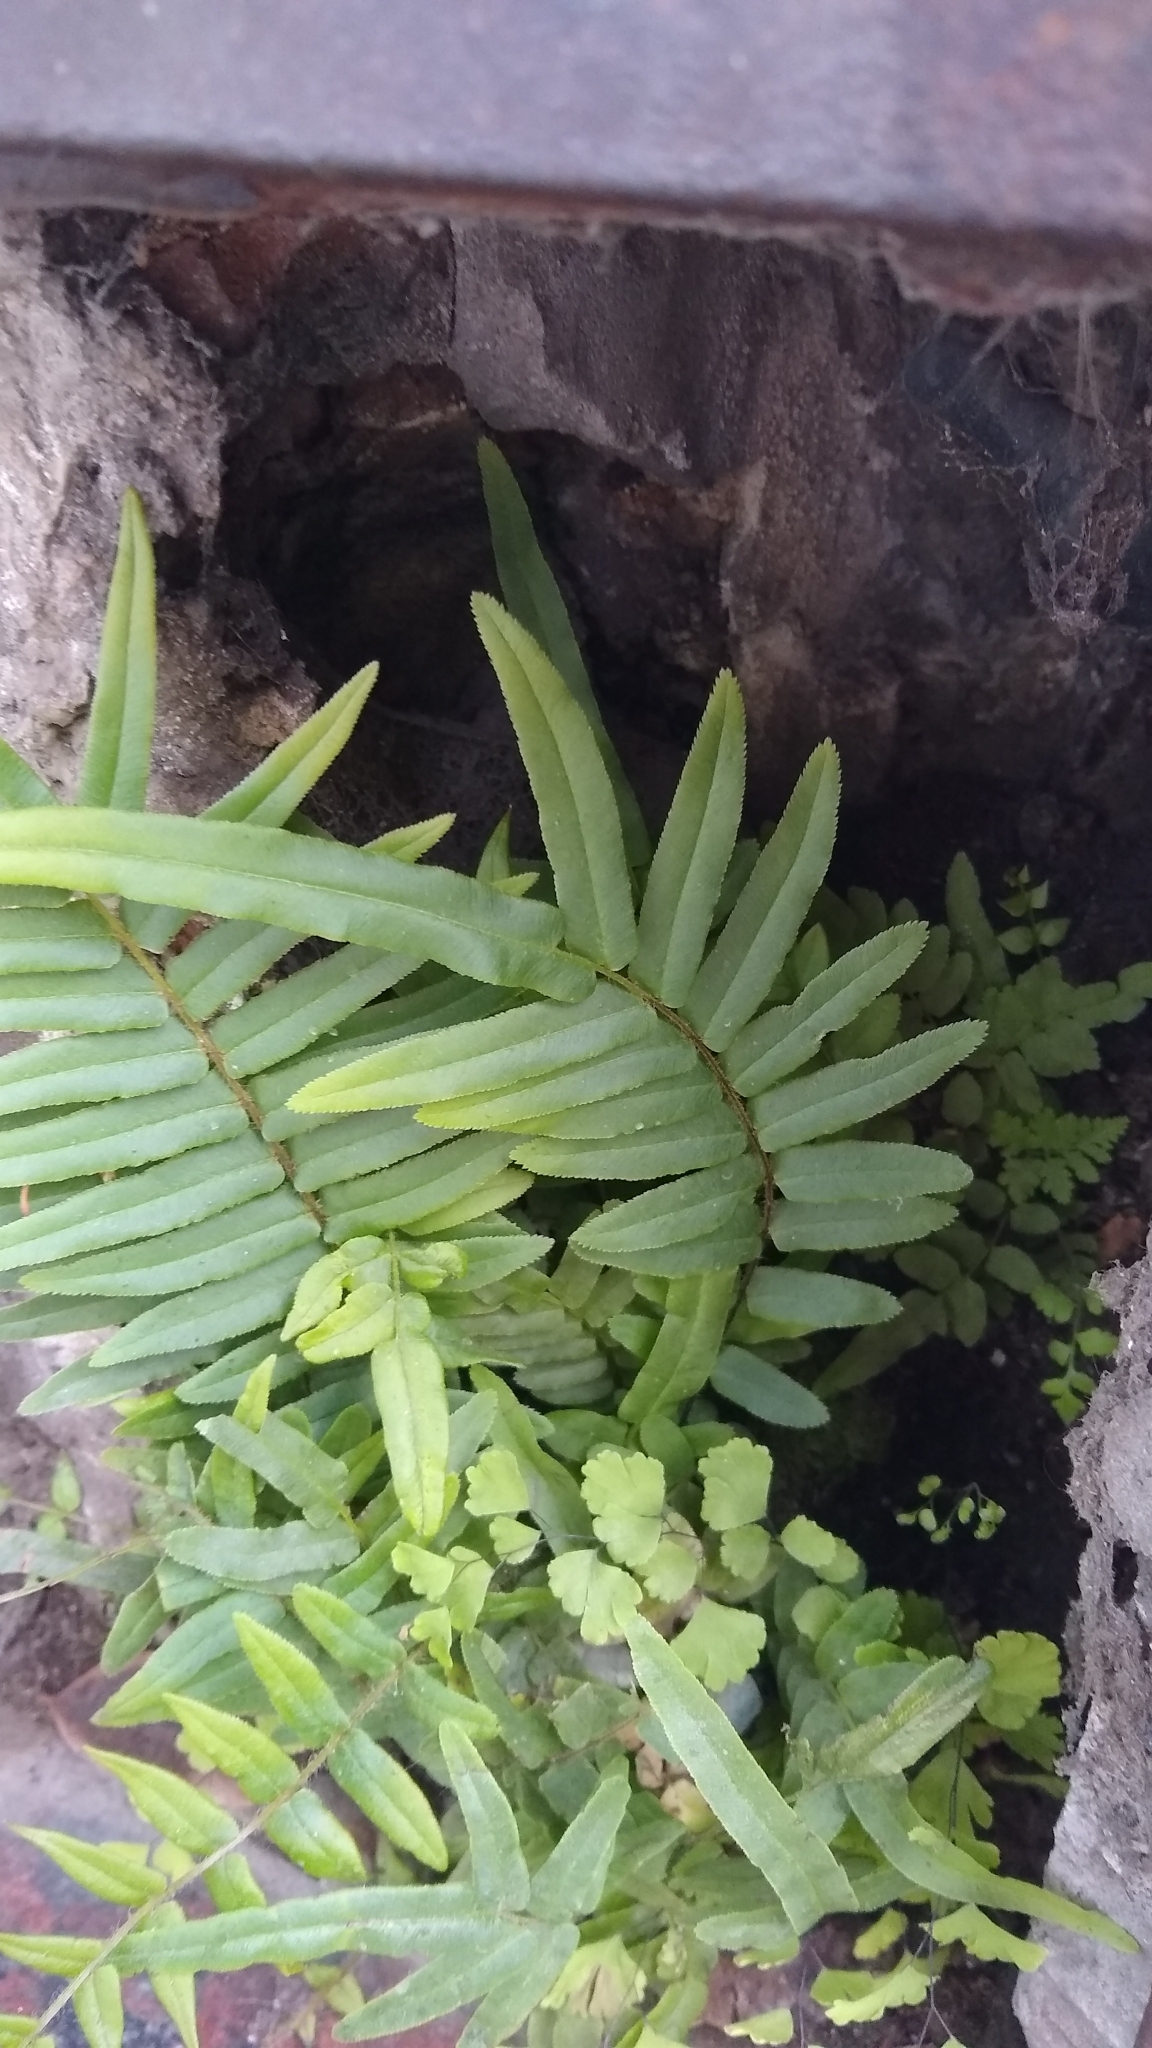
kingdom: Plantae
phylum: Tracheophyta
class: Polypodiopsida
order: Polypodiales
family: Pteridaceae
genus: Pteris
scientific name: Pteris vittata
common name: Ladder brake
